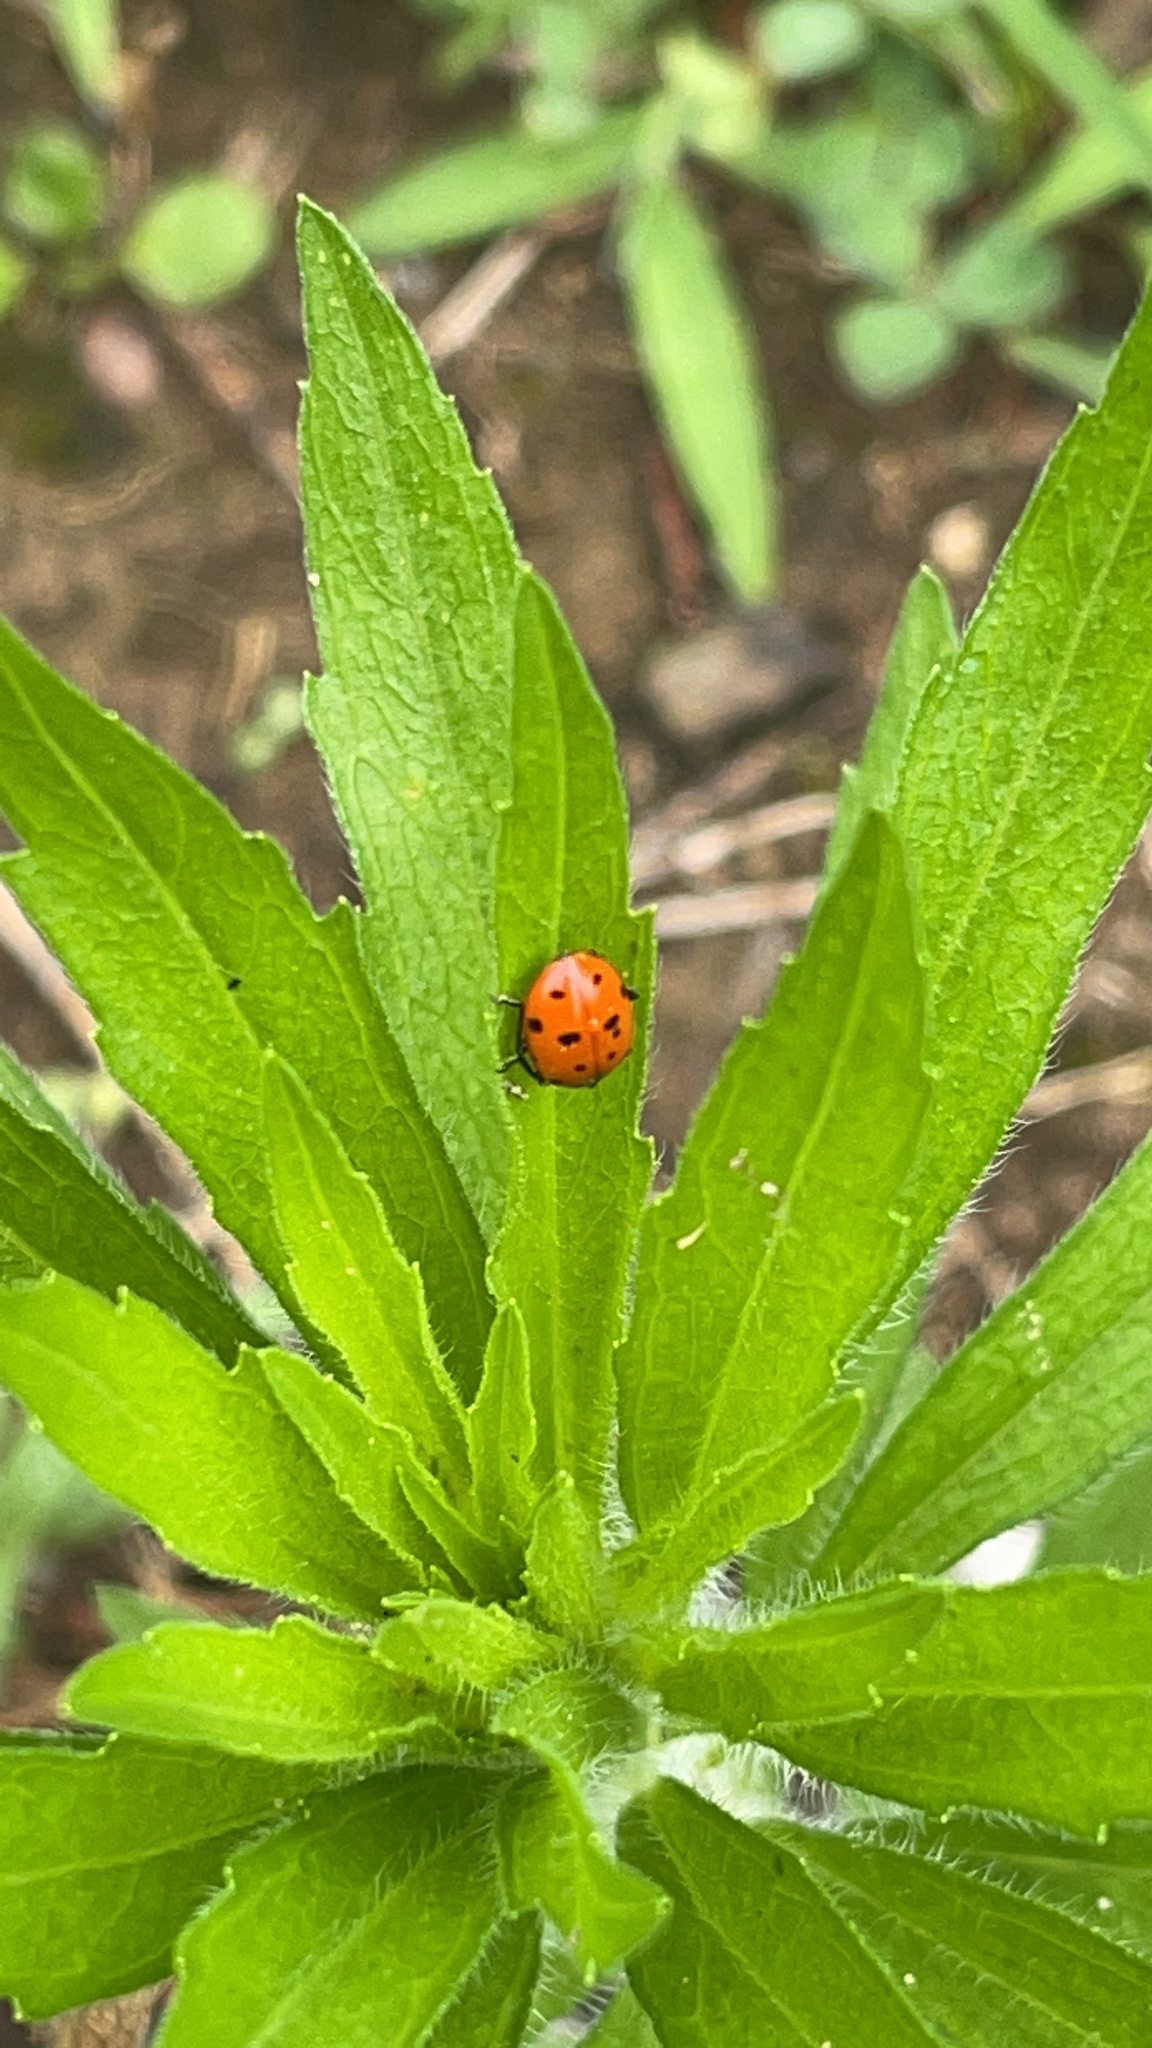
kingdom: Animalia
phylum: Arthropoda
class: Insecta
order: Coleoptera
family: Coccinellidae
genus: Hippodamia
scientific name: Hippodamia convergens
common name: Convergent lady beetle
